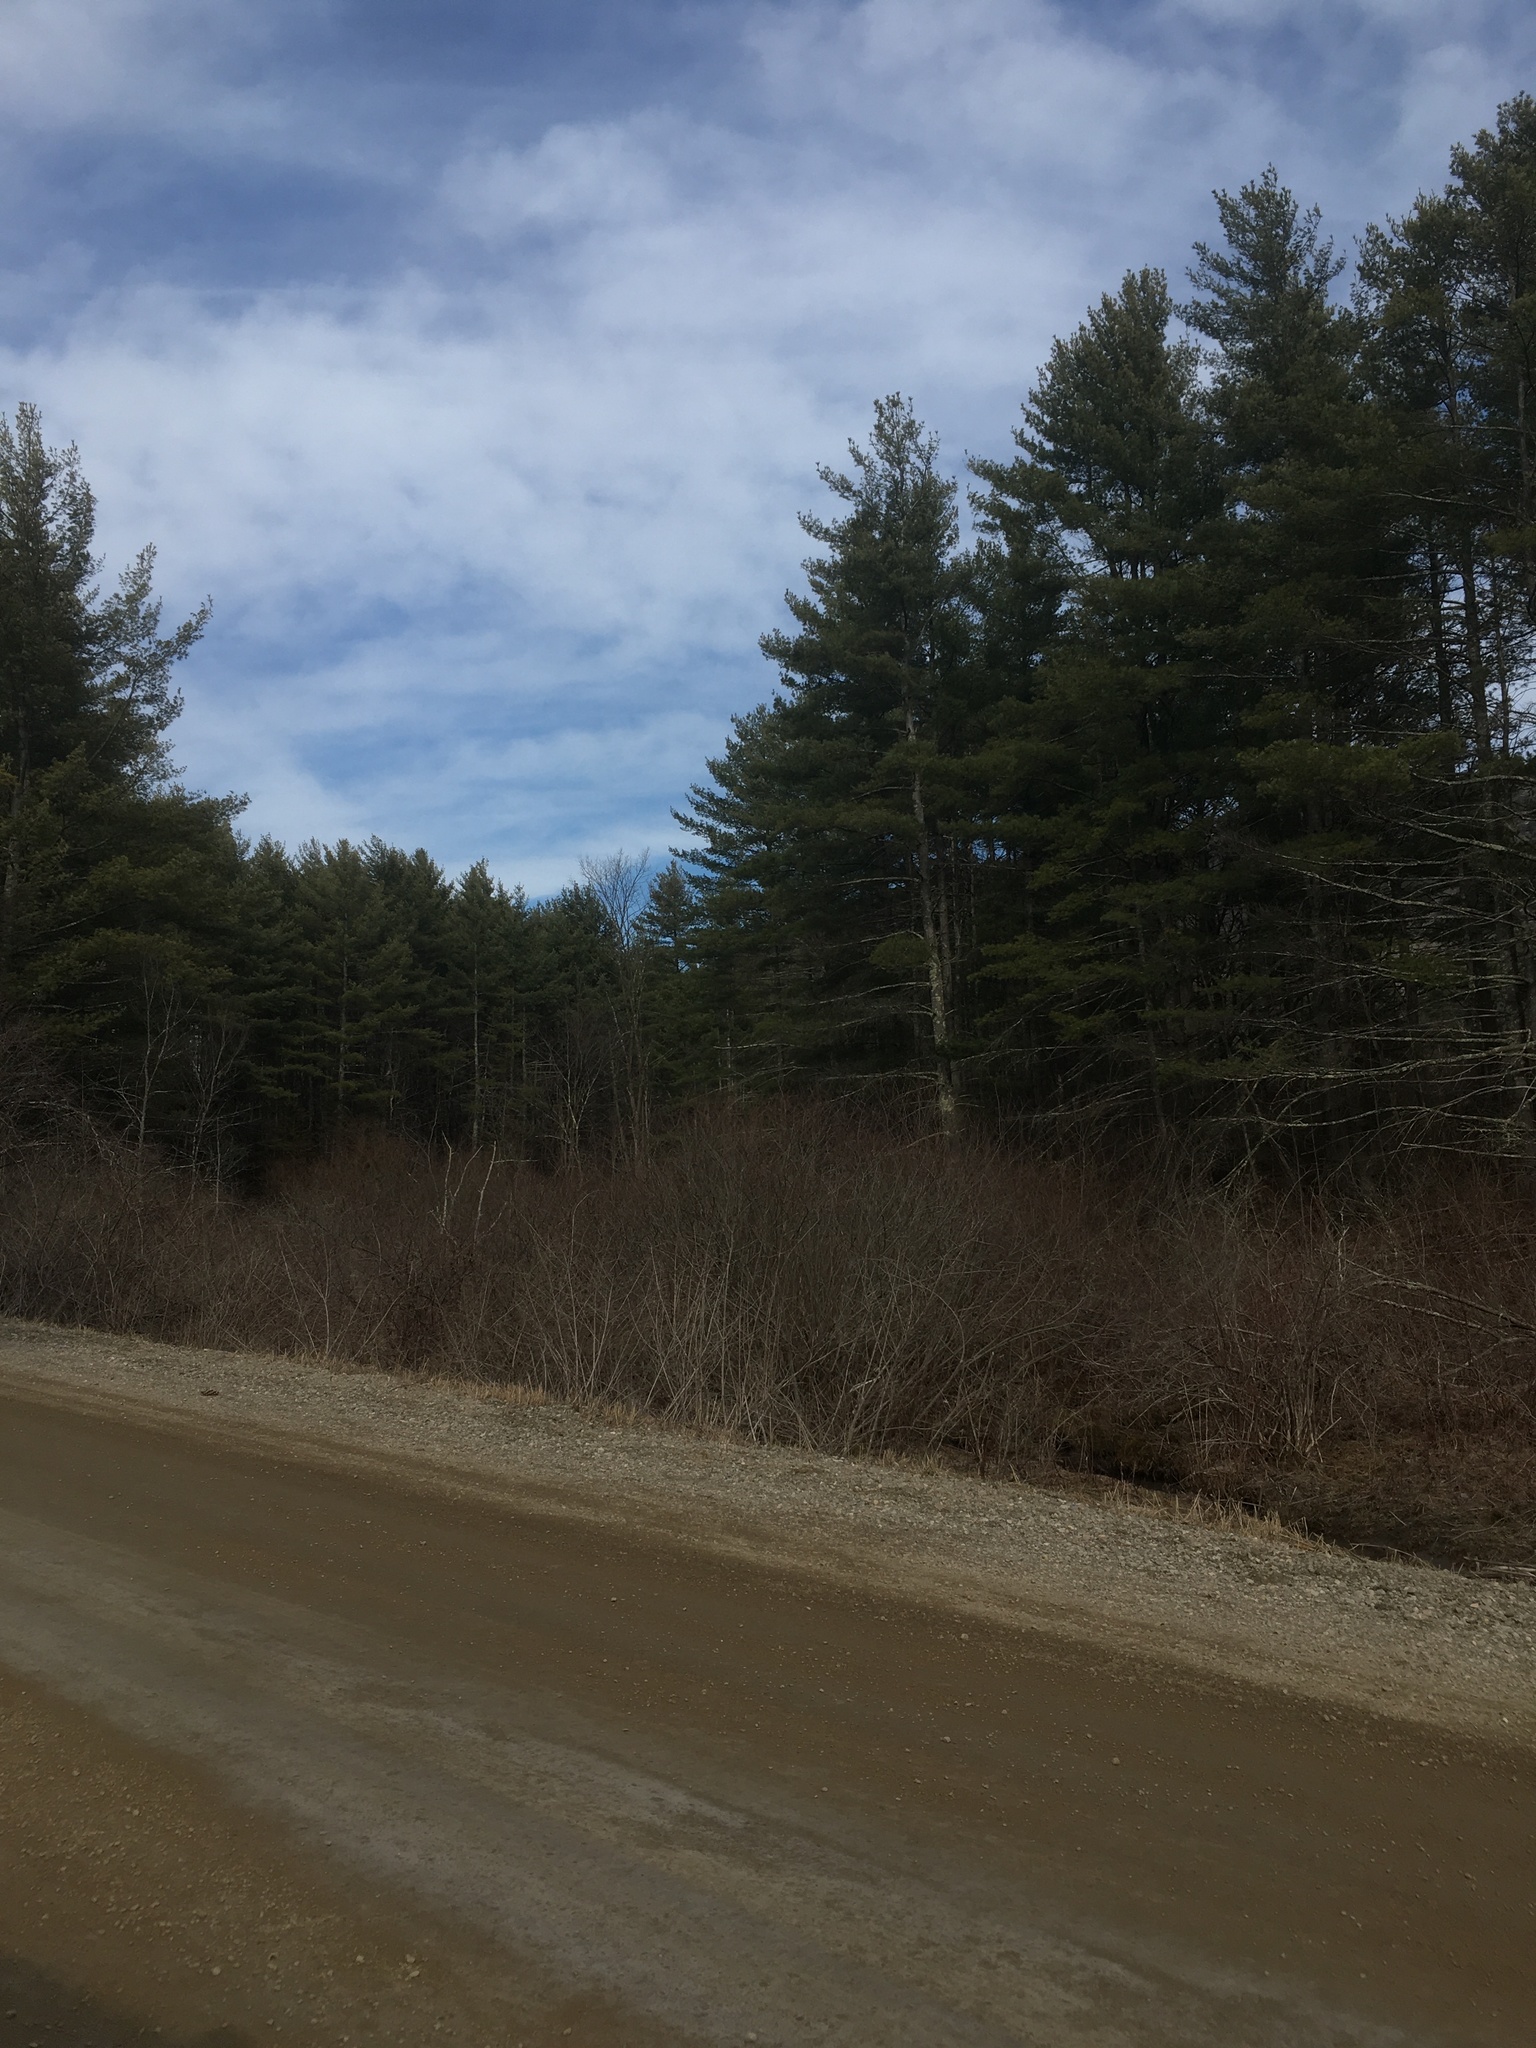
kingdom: Plantae
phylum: Tracheophyta
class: Pinopsida
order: Pinales
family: Pinaceae
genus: Pinus
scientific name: Pinus strobus
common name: Weymouth pine
